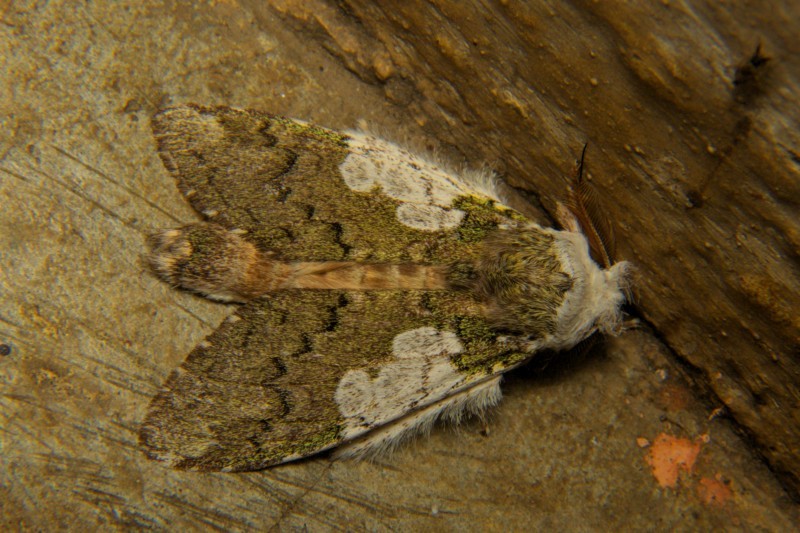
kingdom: Animalia
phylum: Arthropoda
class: Insecta
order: Lepidoptera
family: Notodontidae
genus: Syntypistis
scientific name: Syntypistis comatus
